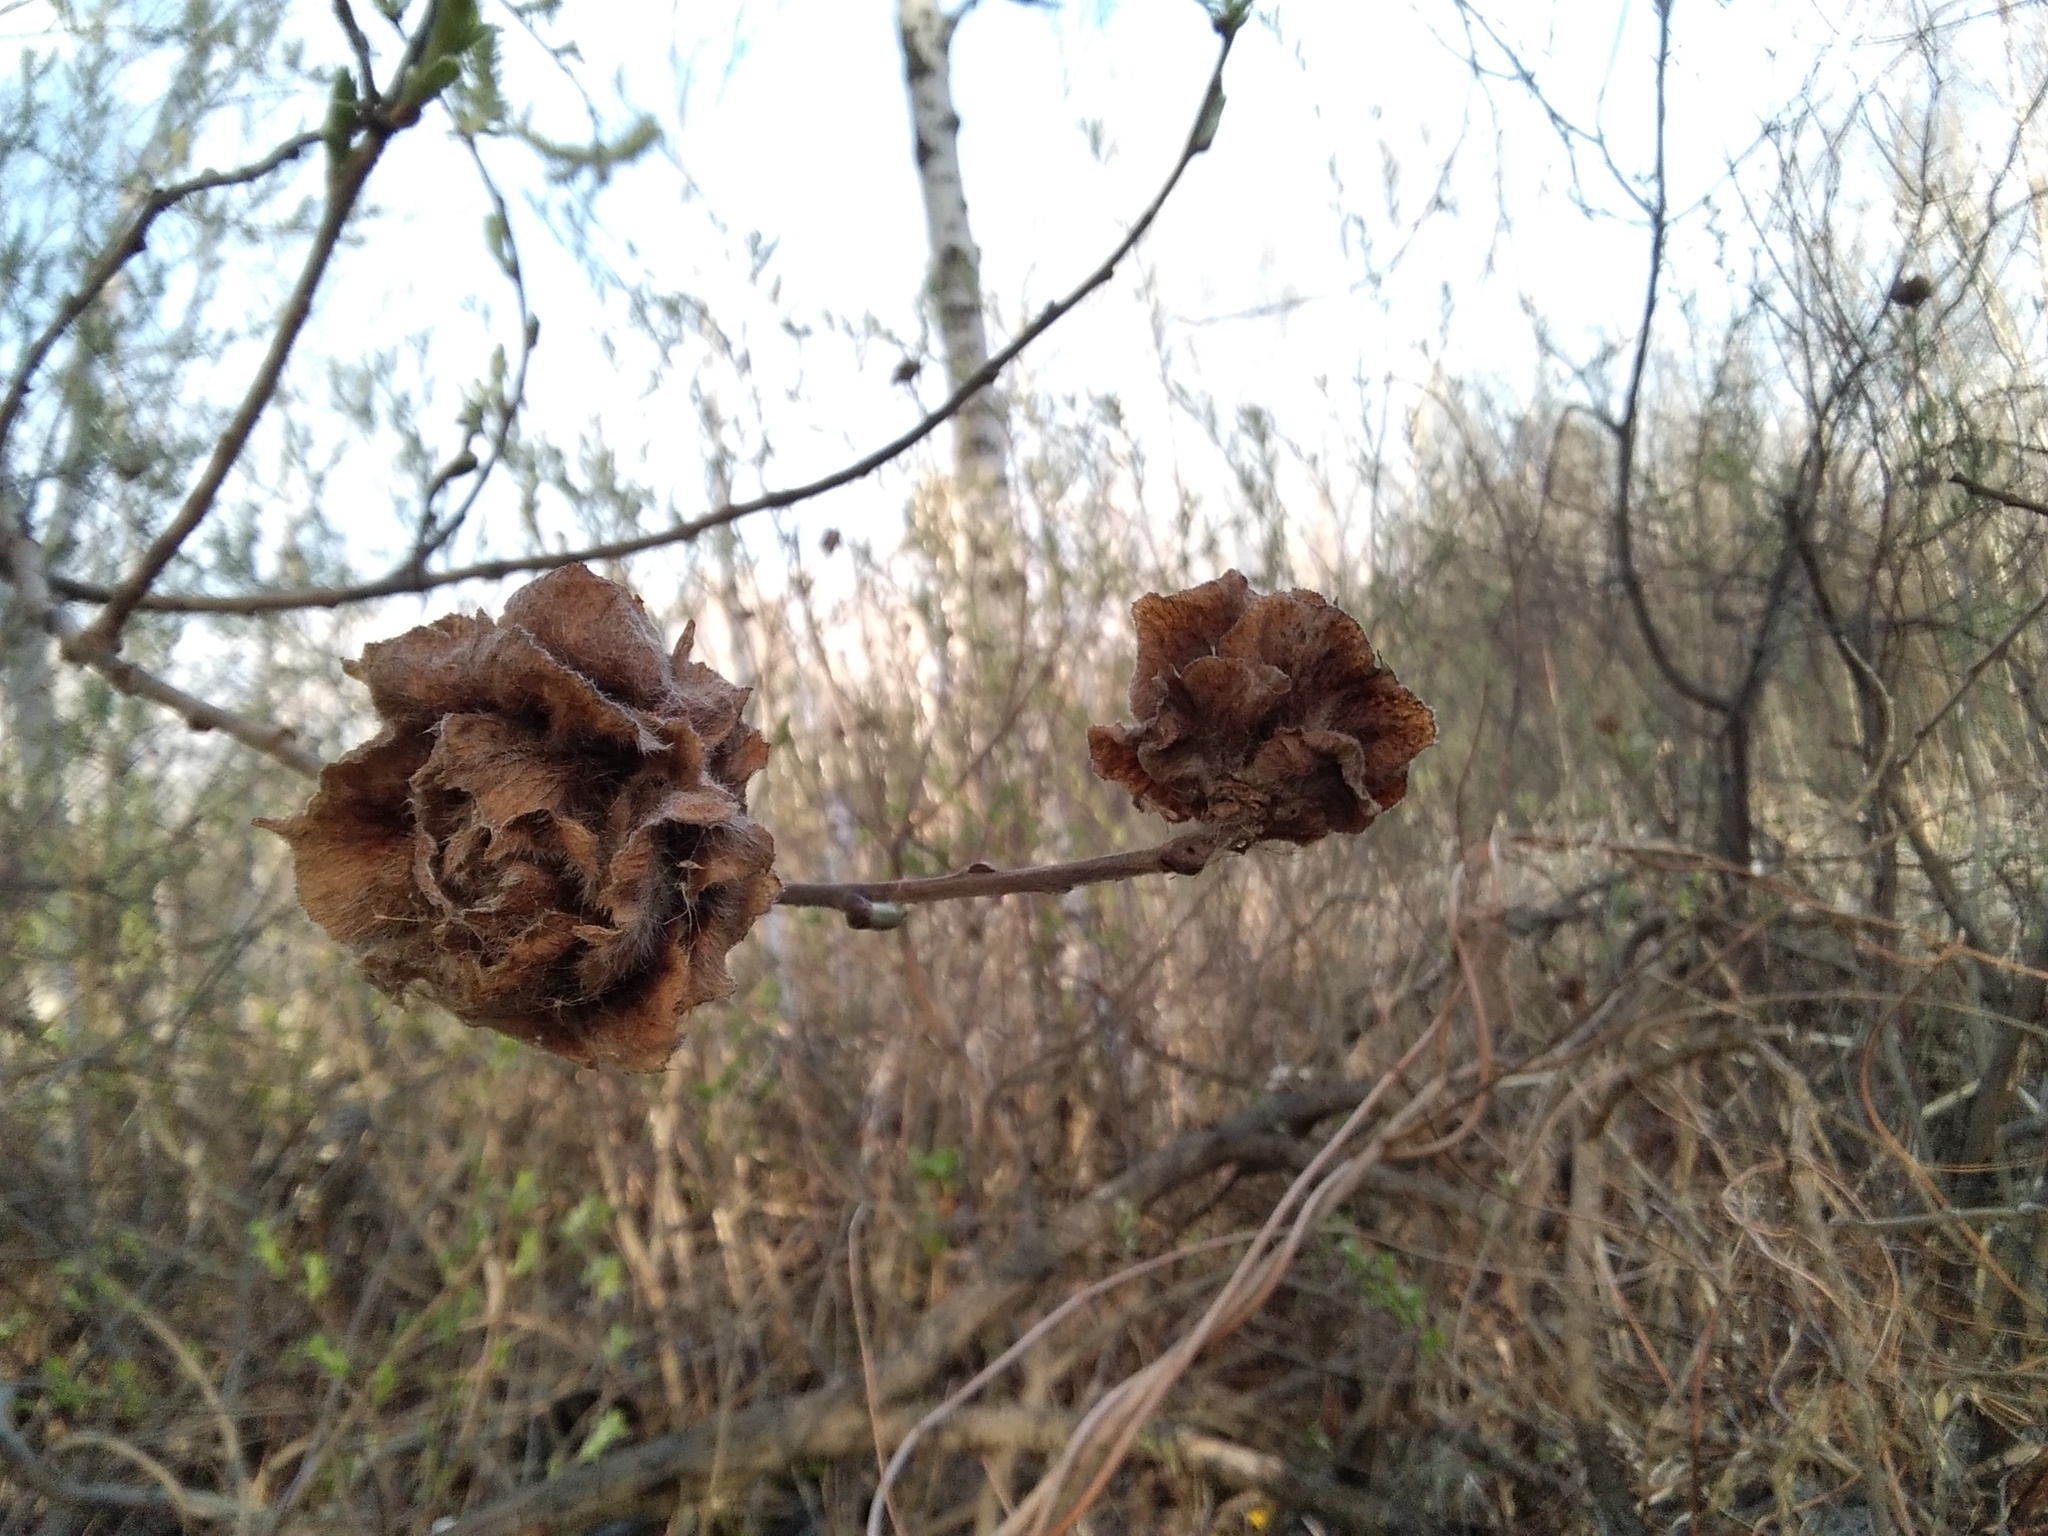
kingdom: Animalia
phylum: Arthropoda
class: Insecta
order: Diptera
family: Cecidomyiidae
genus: Rabdophaga
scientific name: Rabdophaga rosaria
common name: Willow rose gall midge
